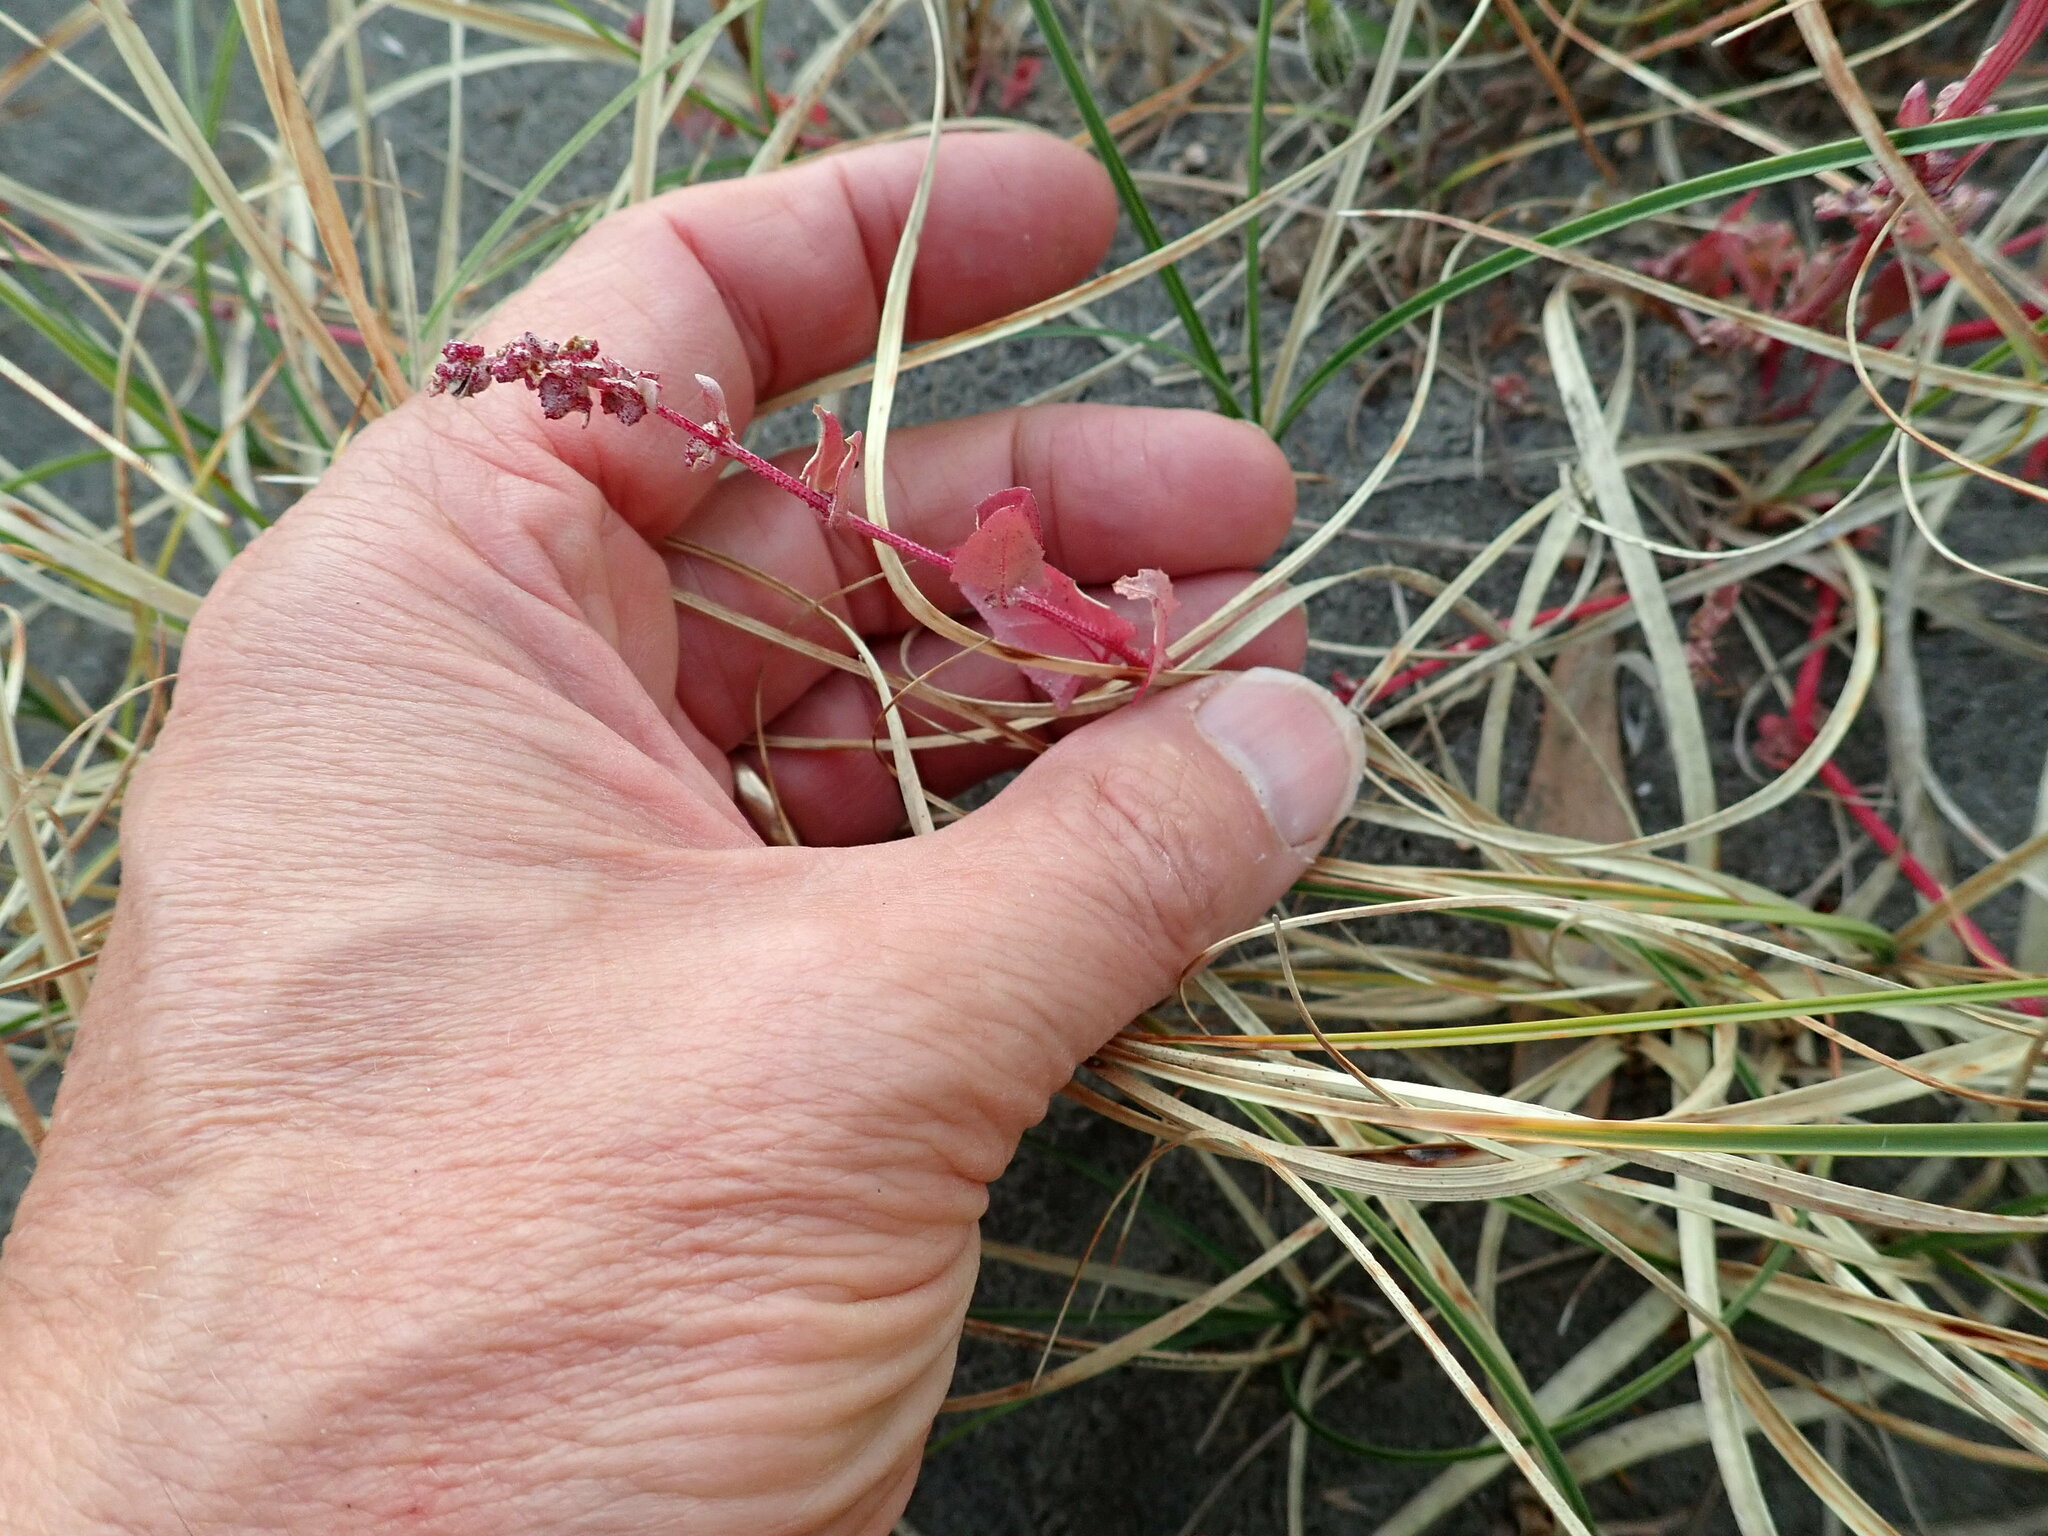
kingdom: Plantae
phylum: Tracheophyta
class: Magnoliopsida
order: Caryophyllales
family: Amaranthaceae
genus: Atriplex
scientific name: Atriplex prostrata
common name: Spear-leaved orache
